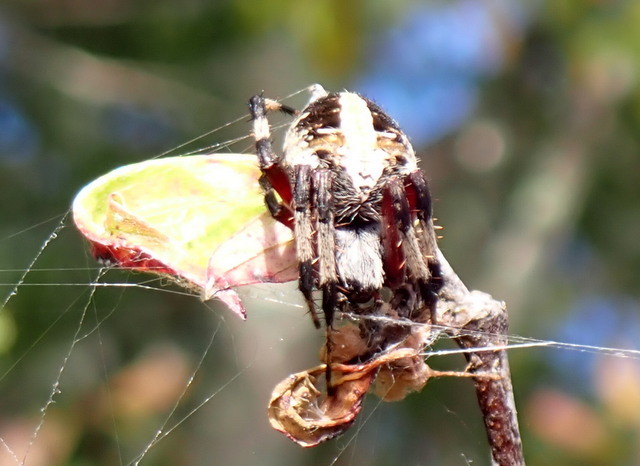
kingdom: Animalia
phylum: Arthropoda
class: Arachnida
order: Araneae
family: Araneidae
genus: Neoscona
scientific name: Neoscona domiciliorum
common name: Red-femured spotted orbweaver
